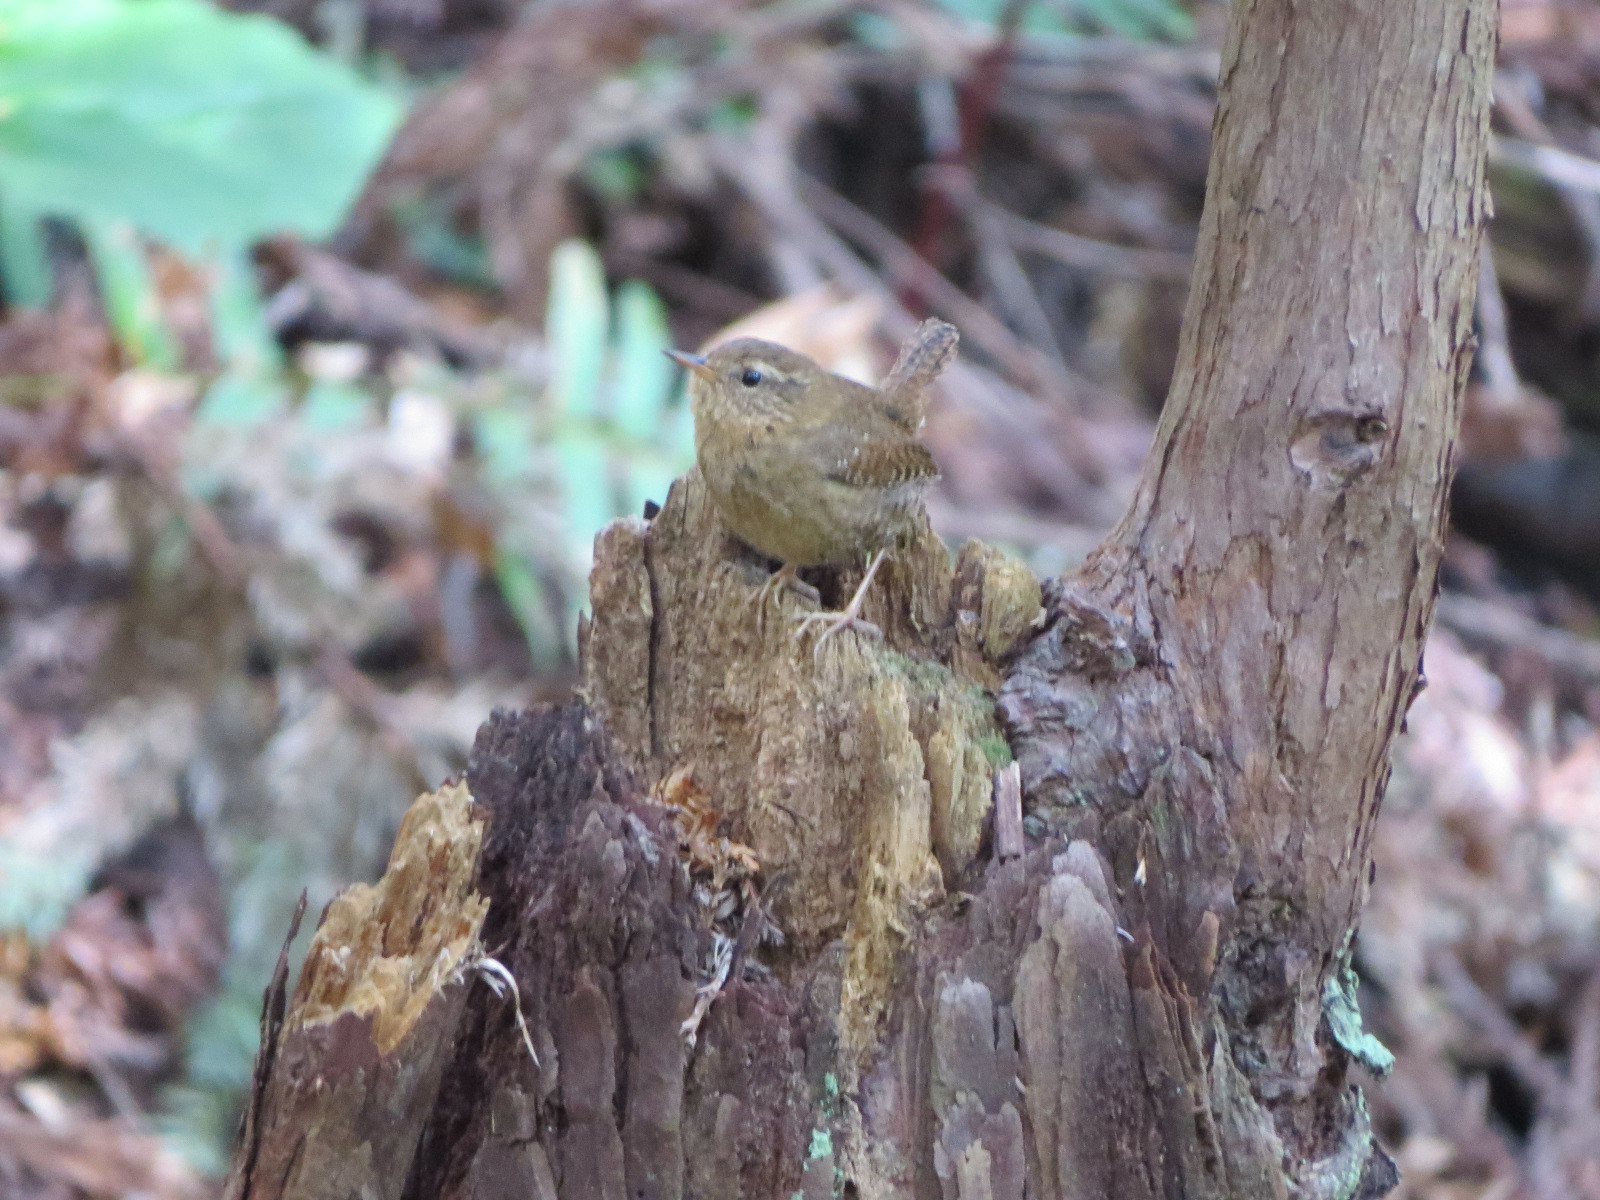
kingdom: Animalia
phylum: Chordata
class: Aves
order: Passeriformes
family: Troglodytidae
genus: Troglodytes
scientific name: Troglodytes pacificus
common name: Pacific wren
